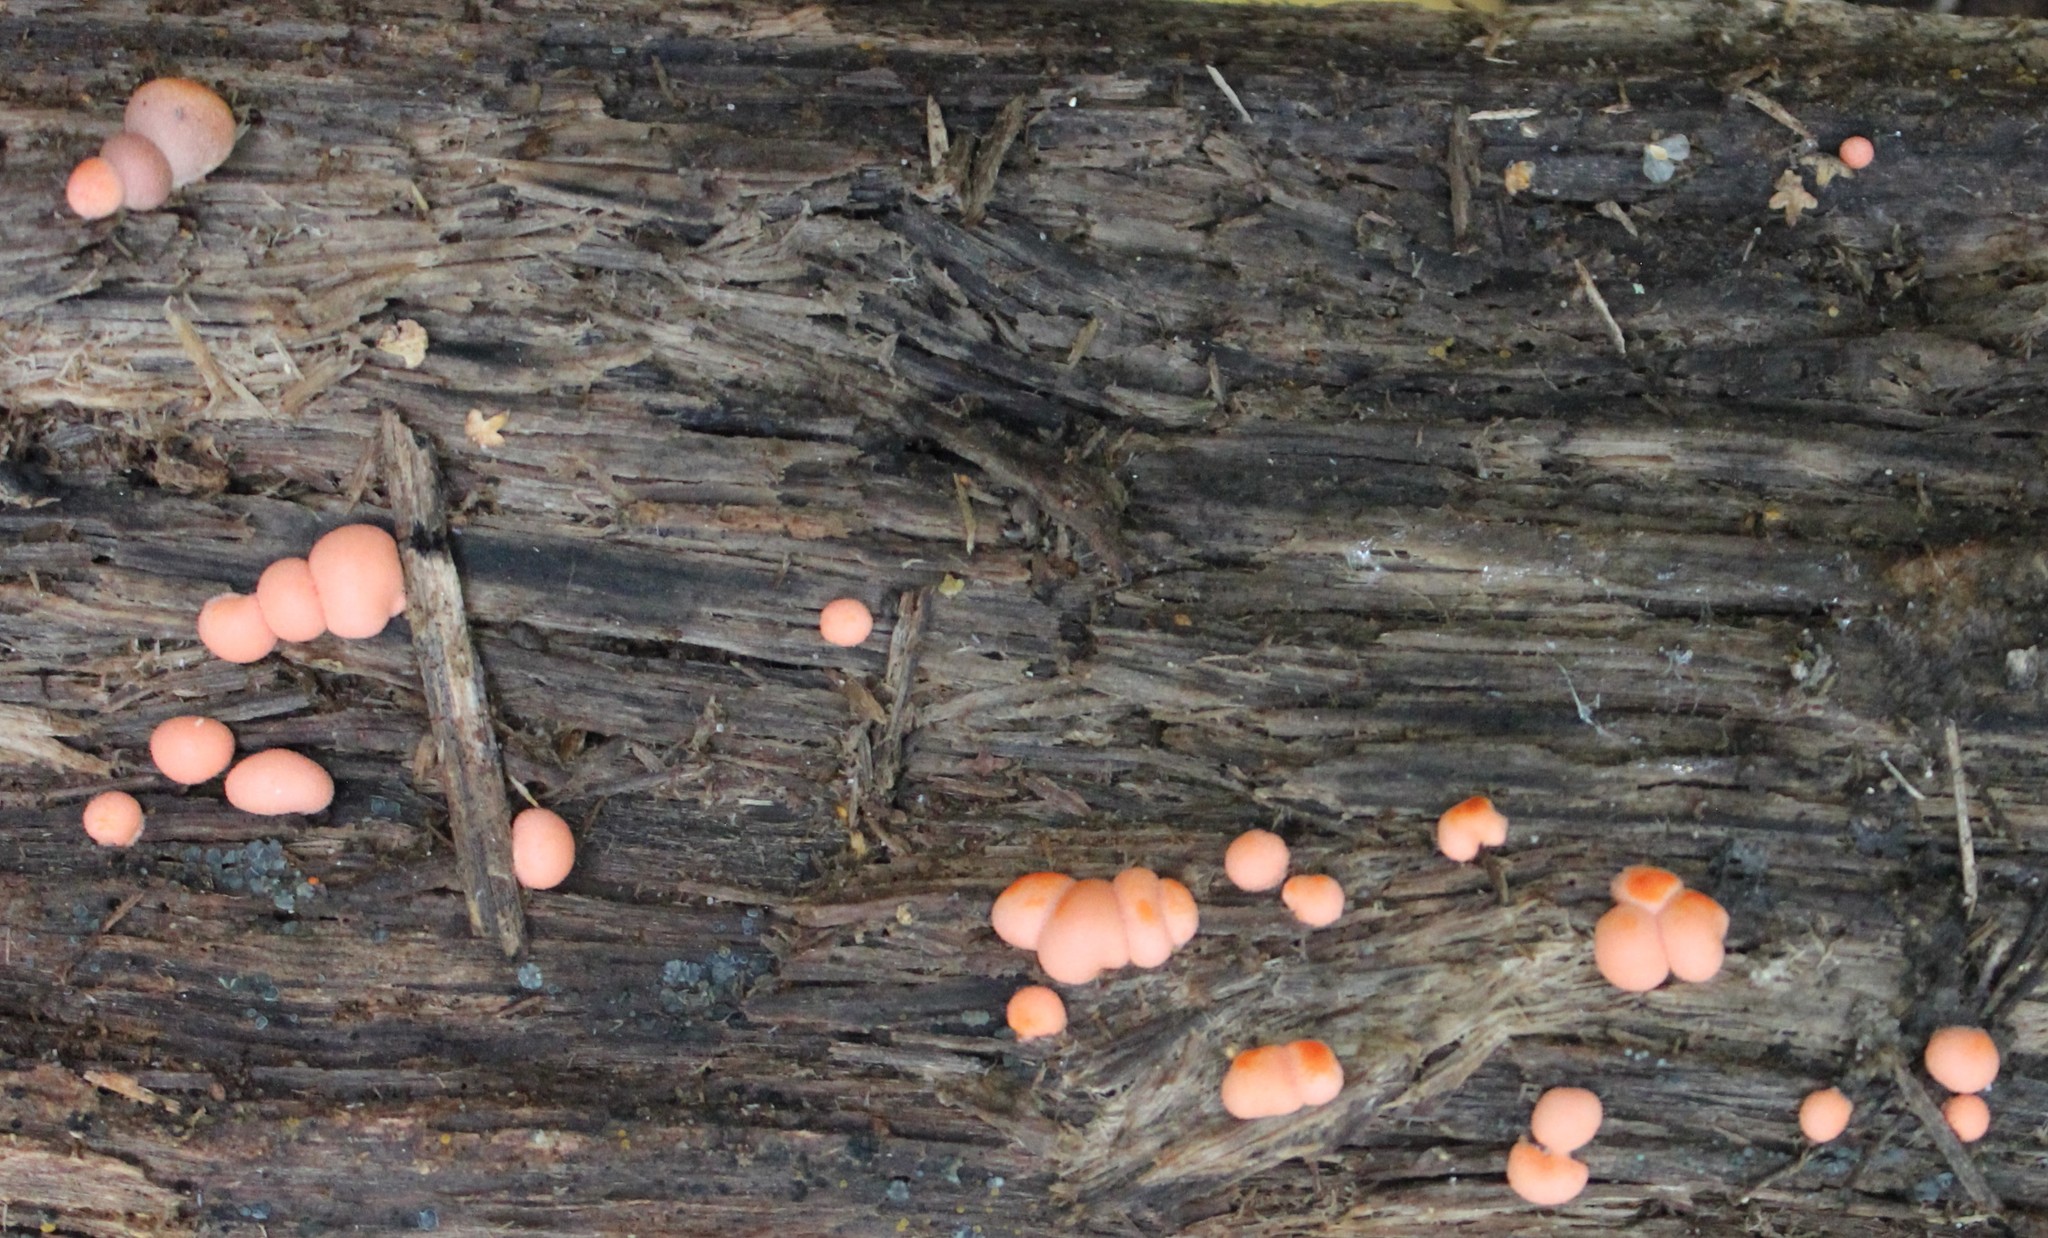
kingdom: Protozoa
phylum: Mycetozoa
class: Myxomycetes
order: Cribrariales
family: Tubiferaceae
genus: Lycogala
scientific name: Lycogala epidendrum
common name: Wolf's milk
